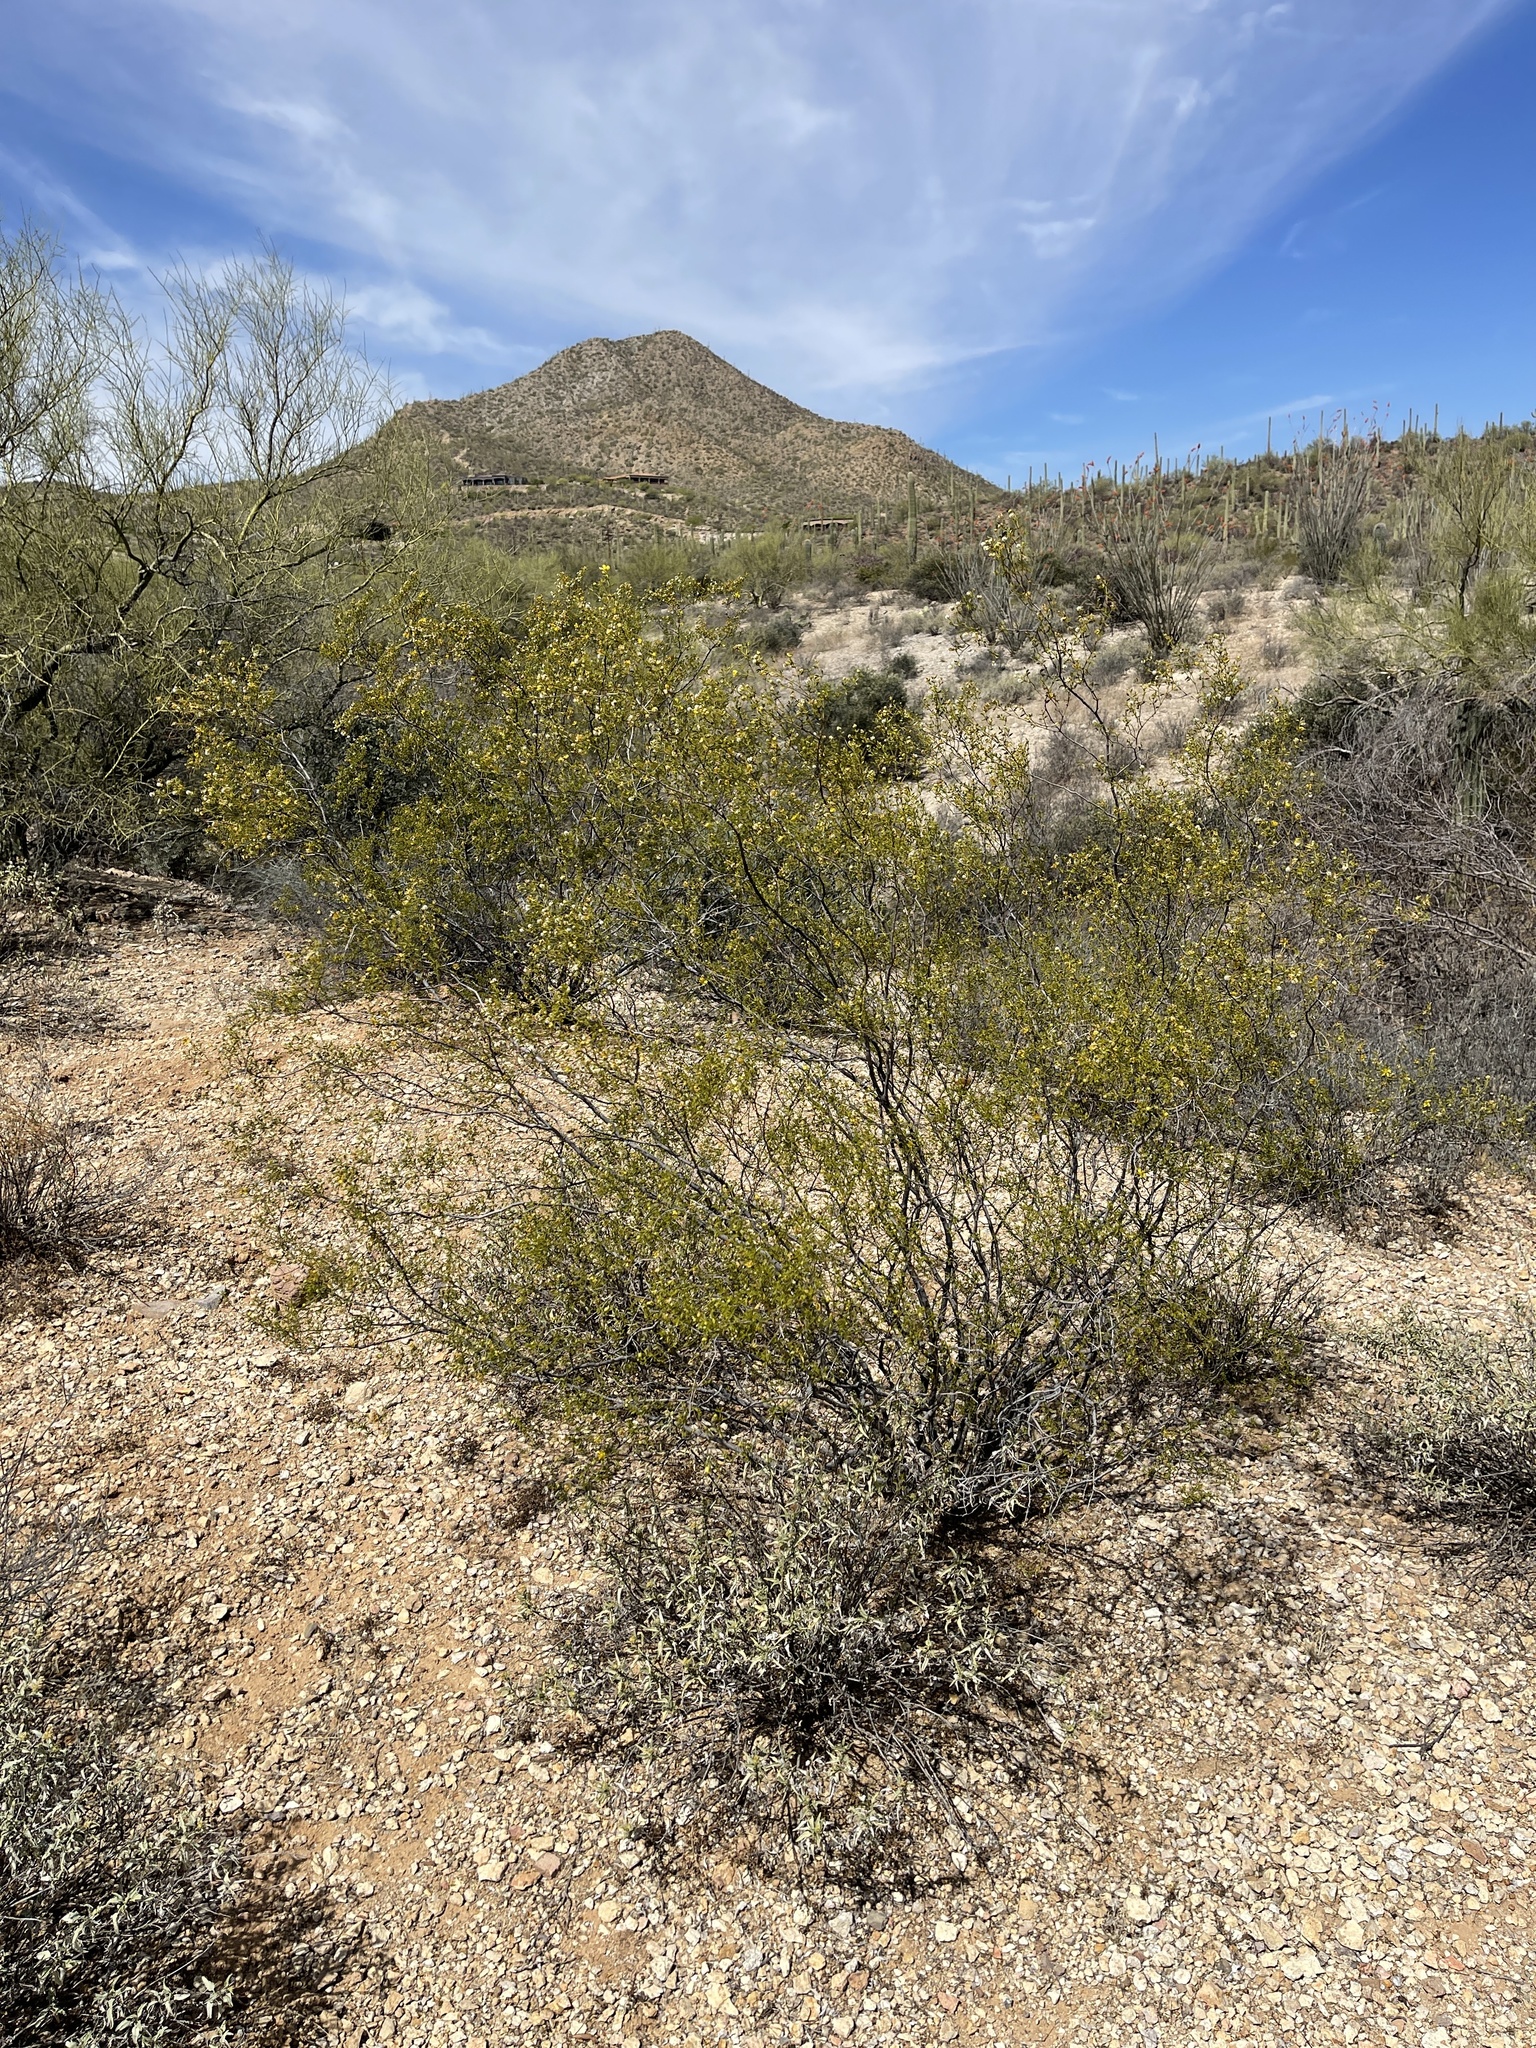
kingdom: Plantae
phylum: Tracheophyta
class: Magnoliopsida
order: Zygophyllales
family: Zygophyllaceae
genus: Larrea
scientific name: Larrea tridentata
